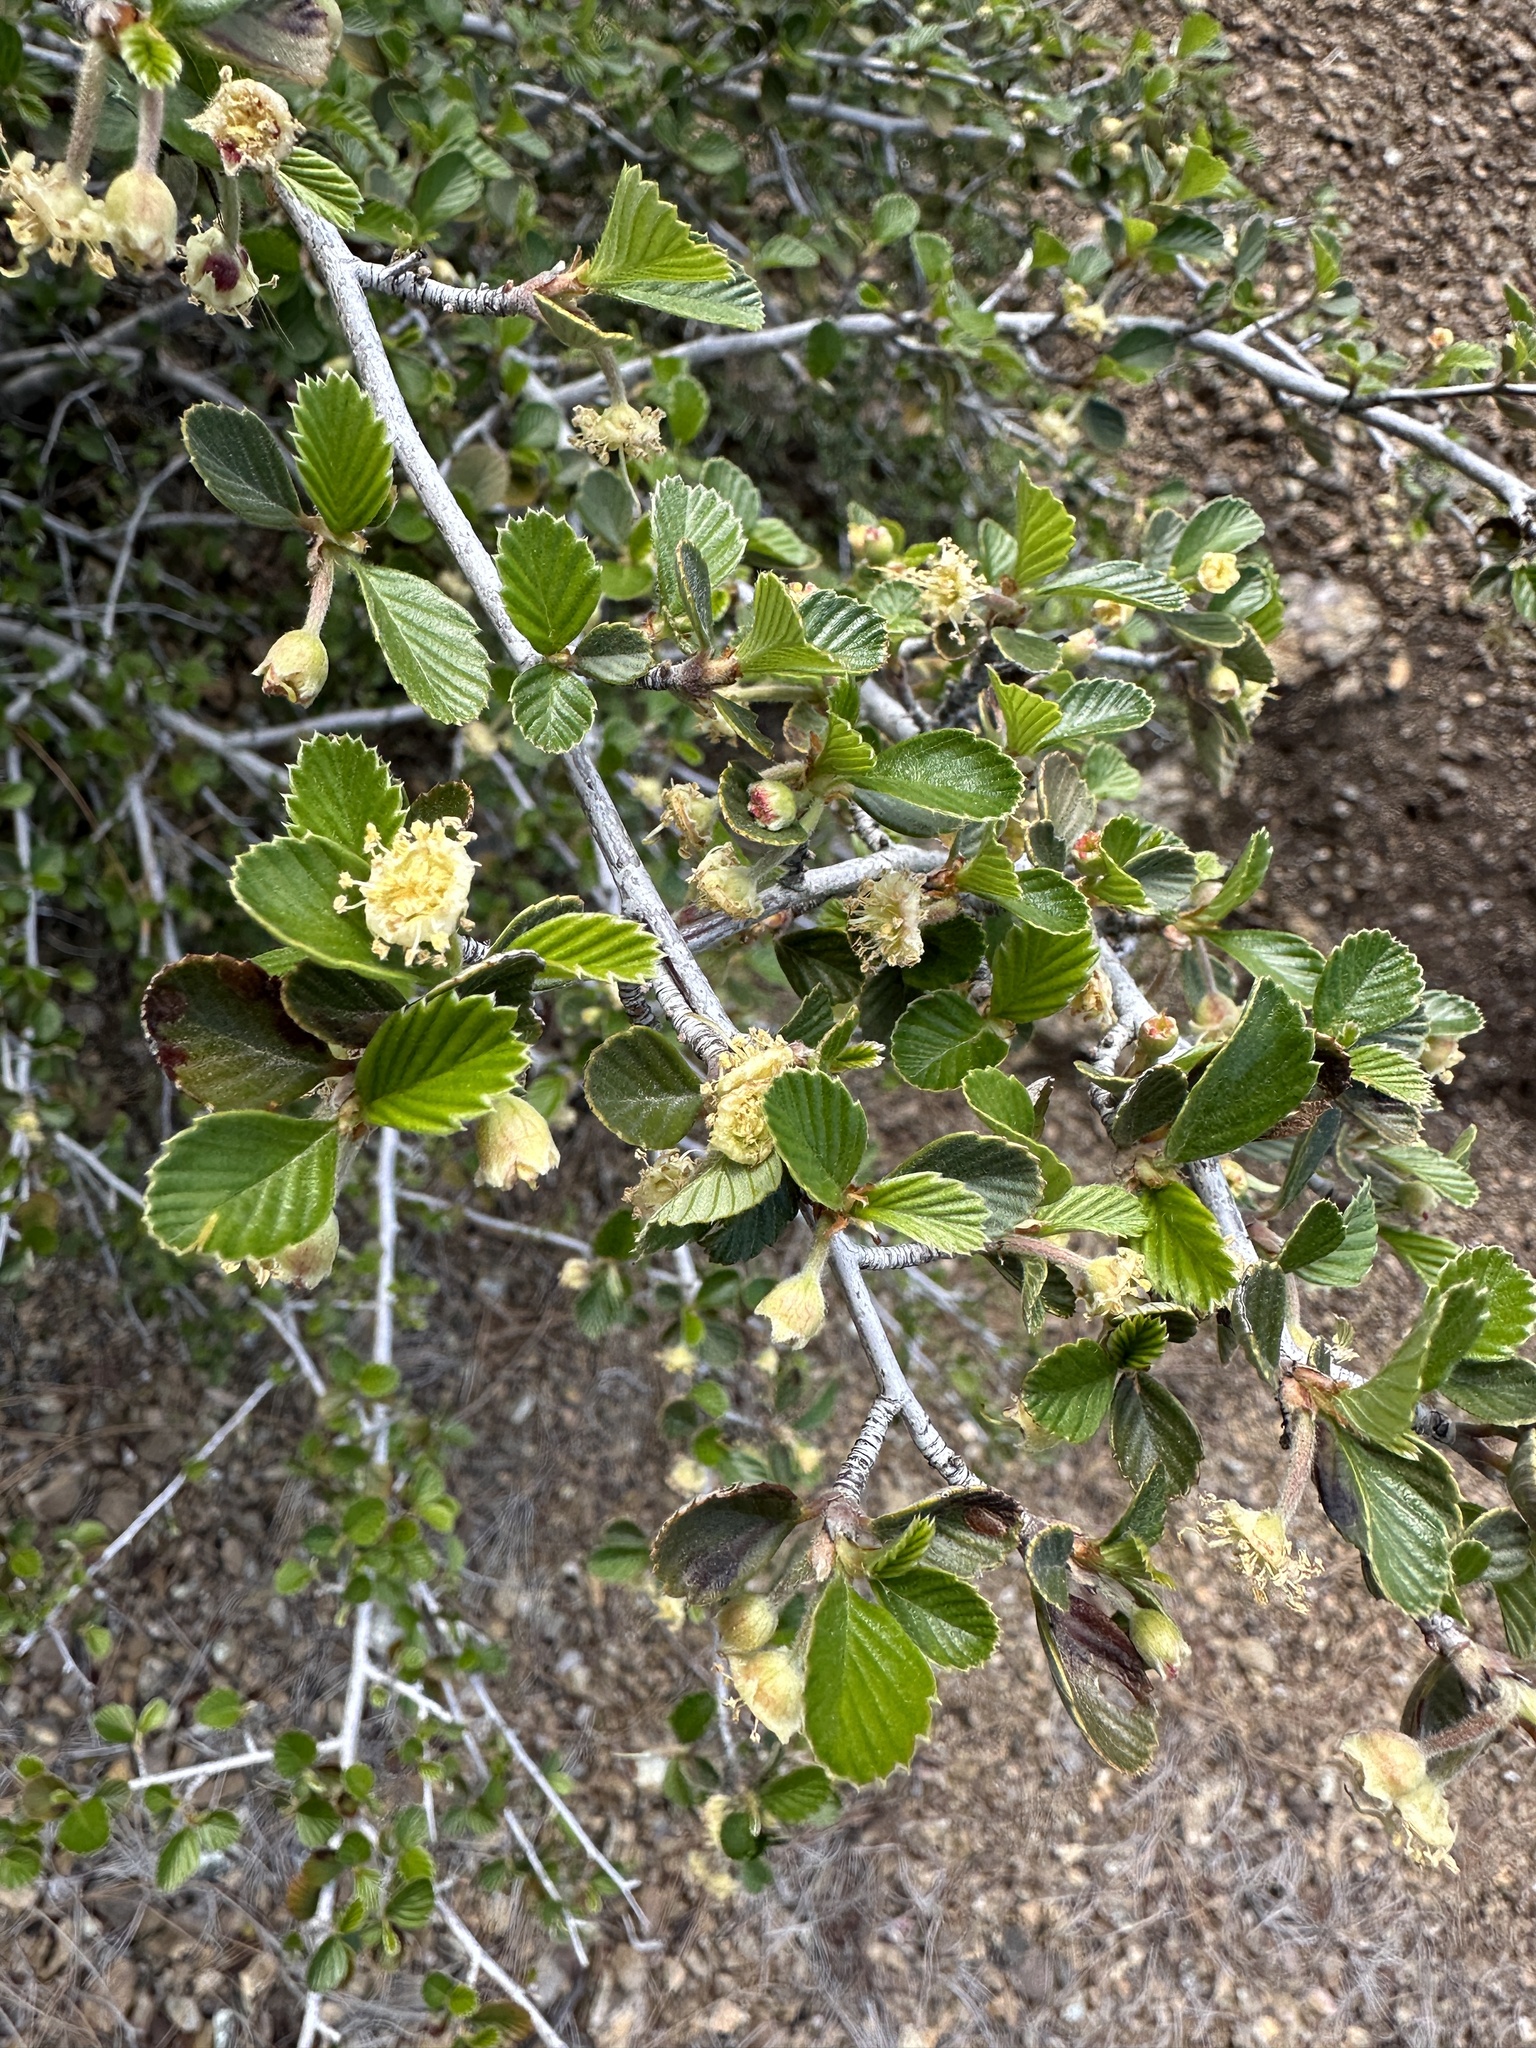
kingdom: Plantae
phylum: Tracheophyta
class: Magnoliopsida
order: Rosales
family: Rosaceae
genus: Cercocarpus
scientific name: Cercocarpus betuloides
